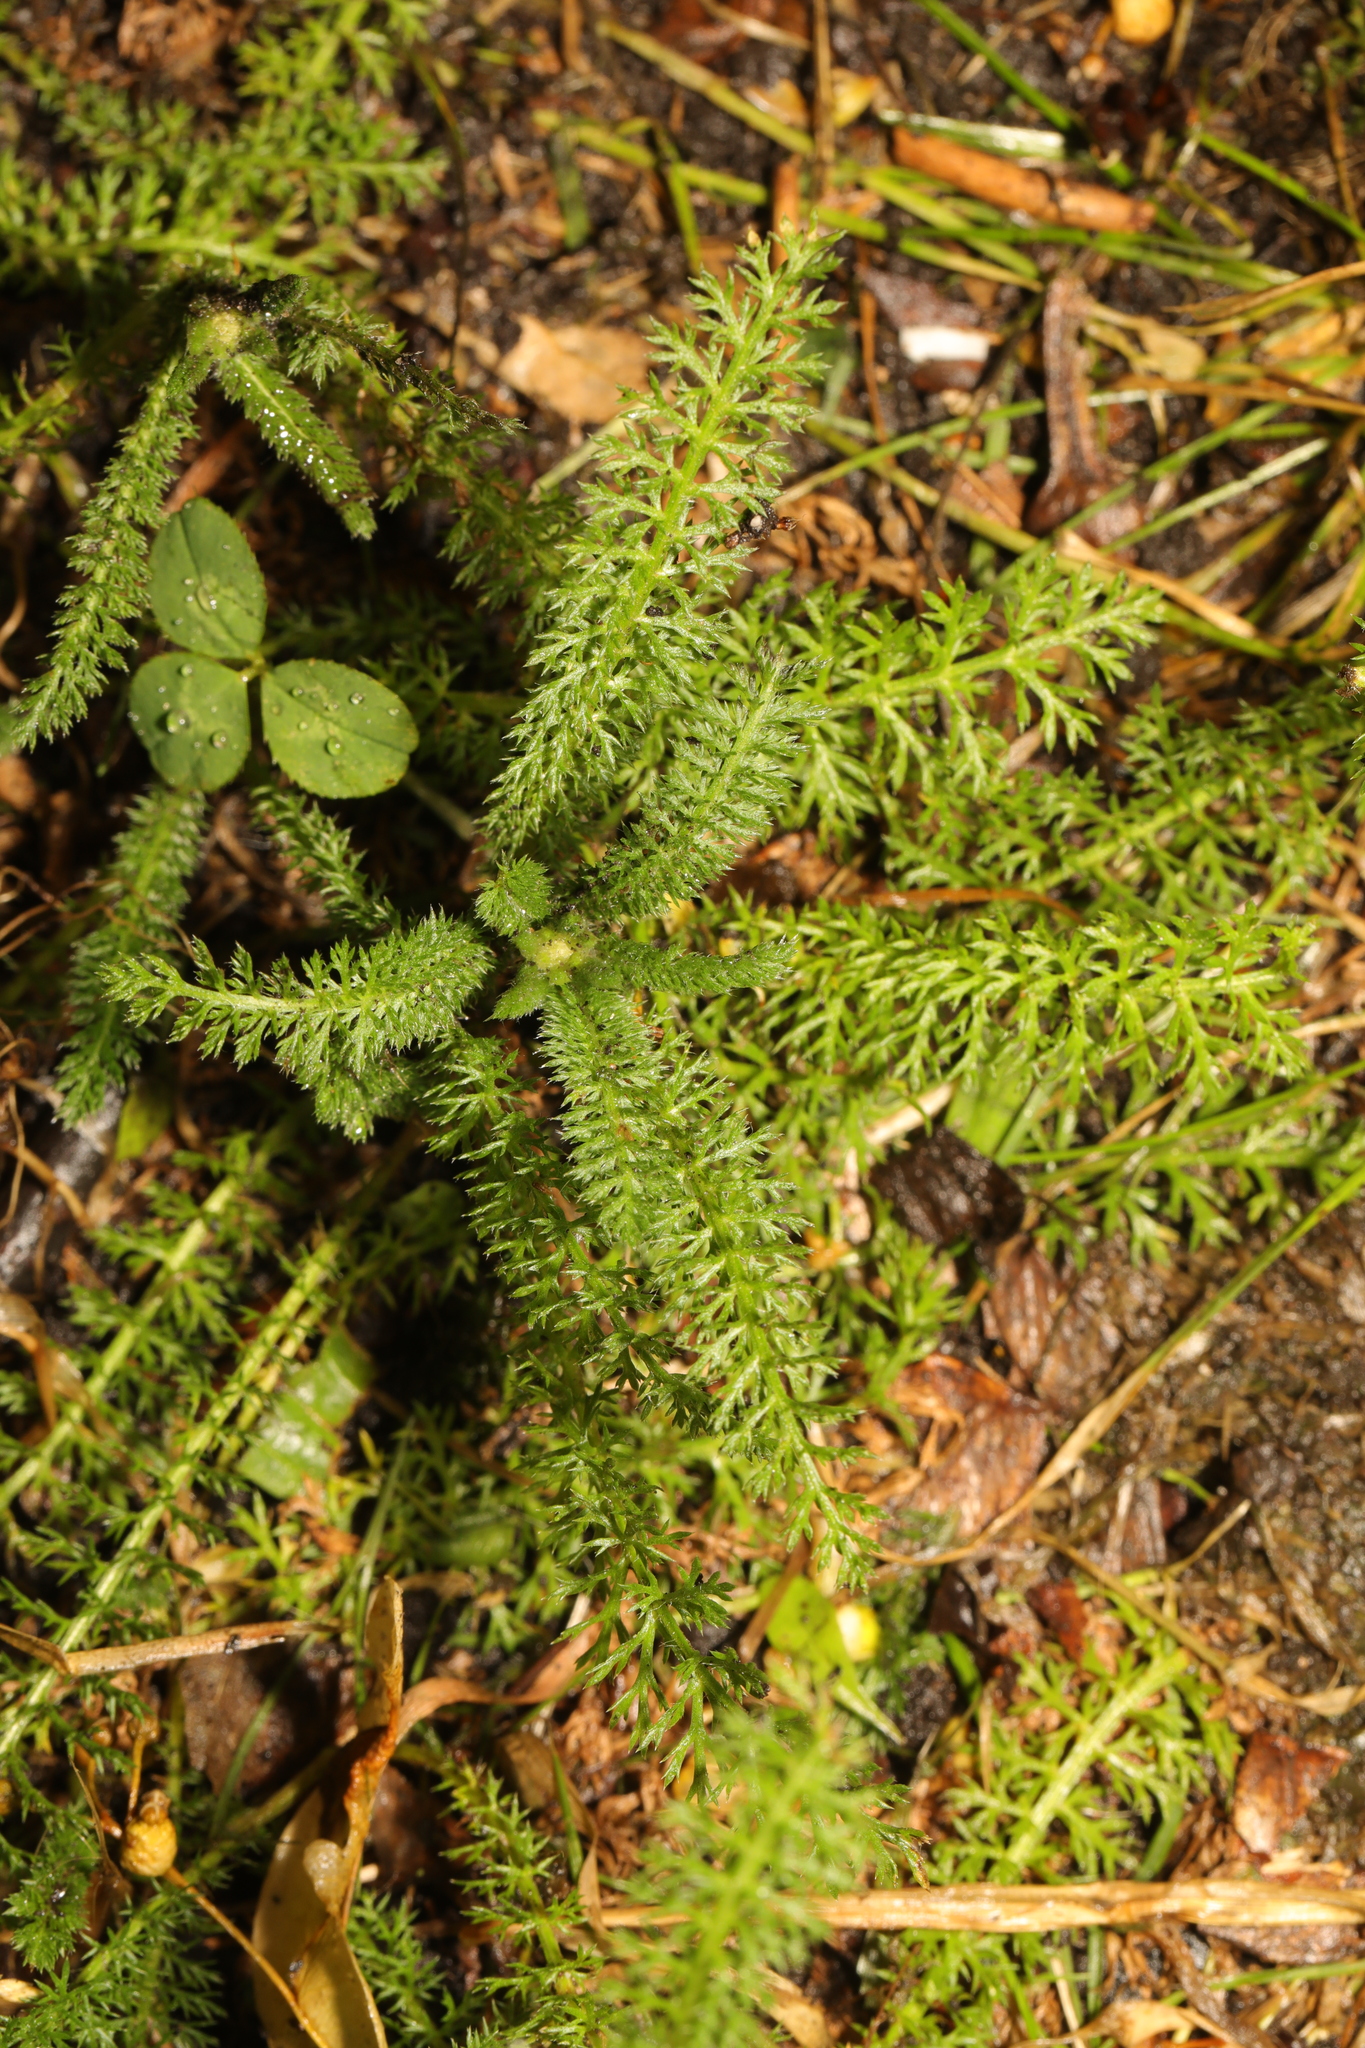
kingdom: Plantae
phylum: Tracheophyta
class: Magnoliopsida
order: Asterales
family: Asteraceae
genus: Achillea
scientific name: Achillea millefolium
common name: Yarrow
